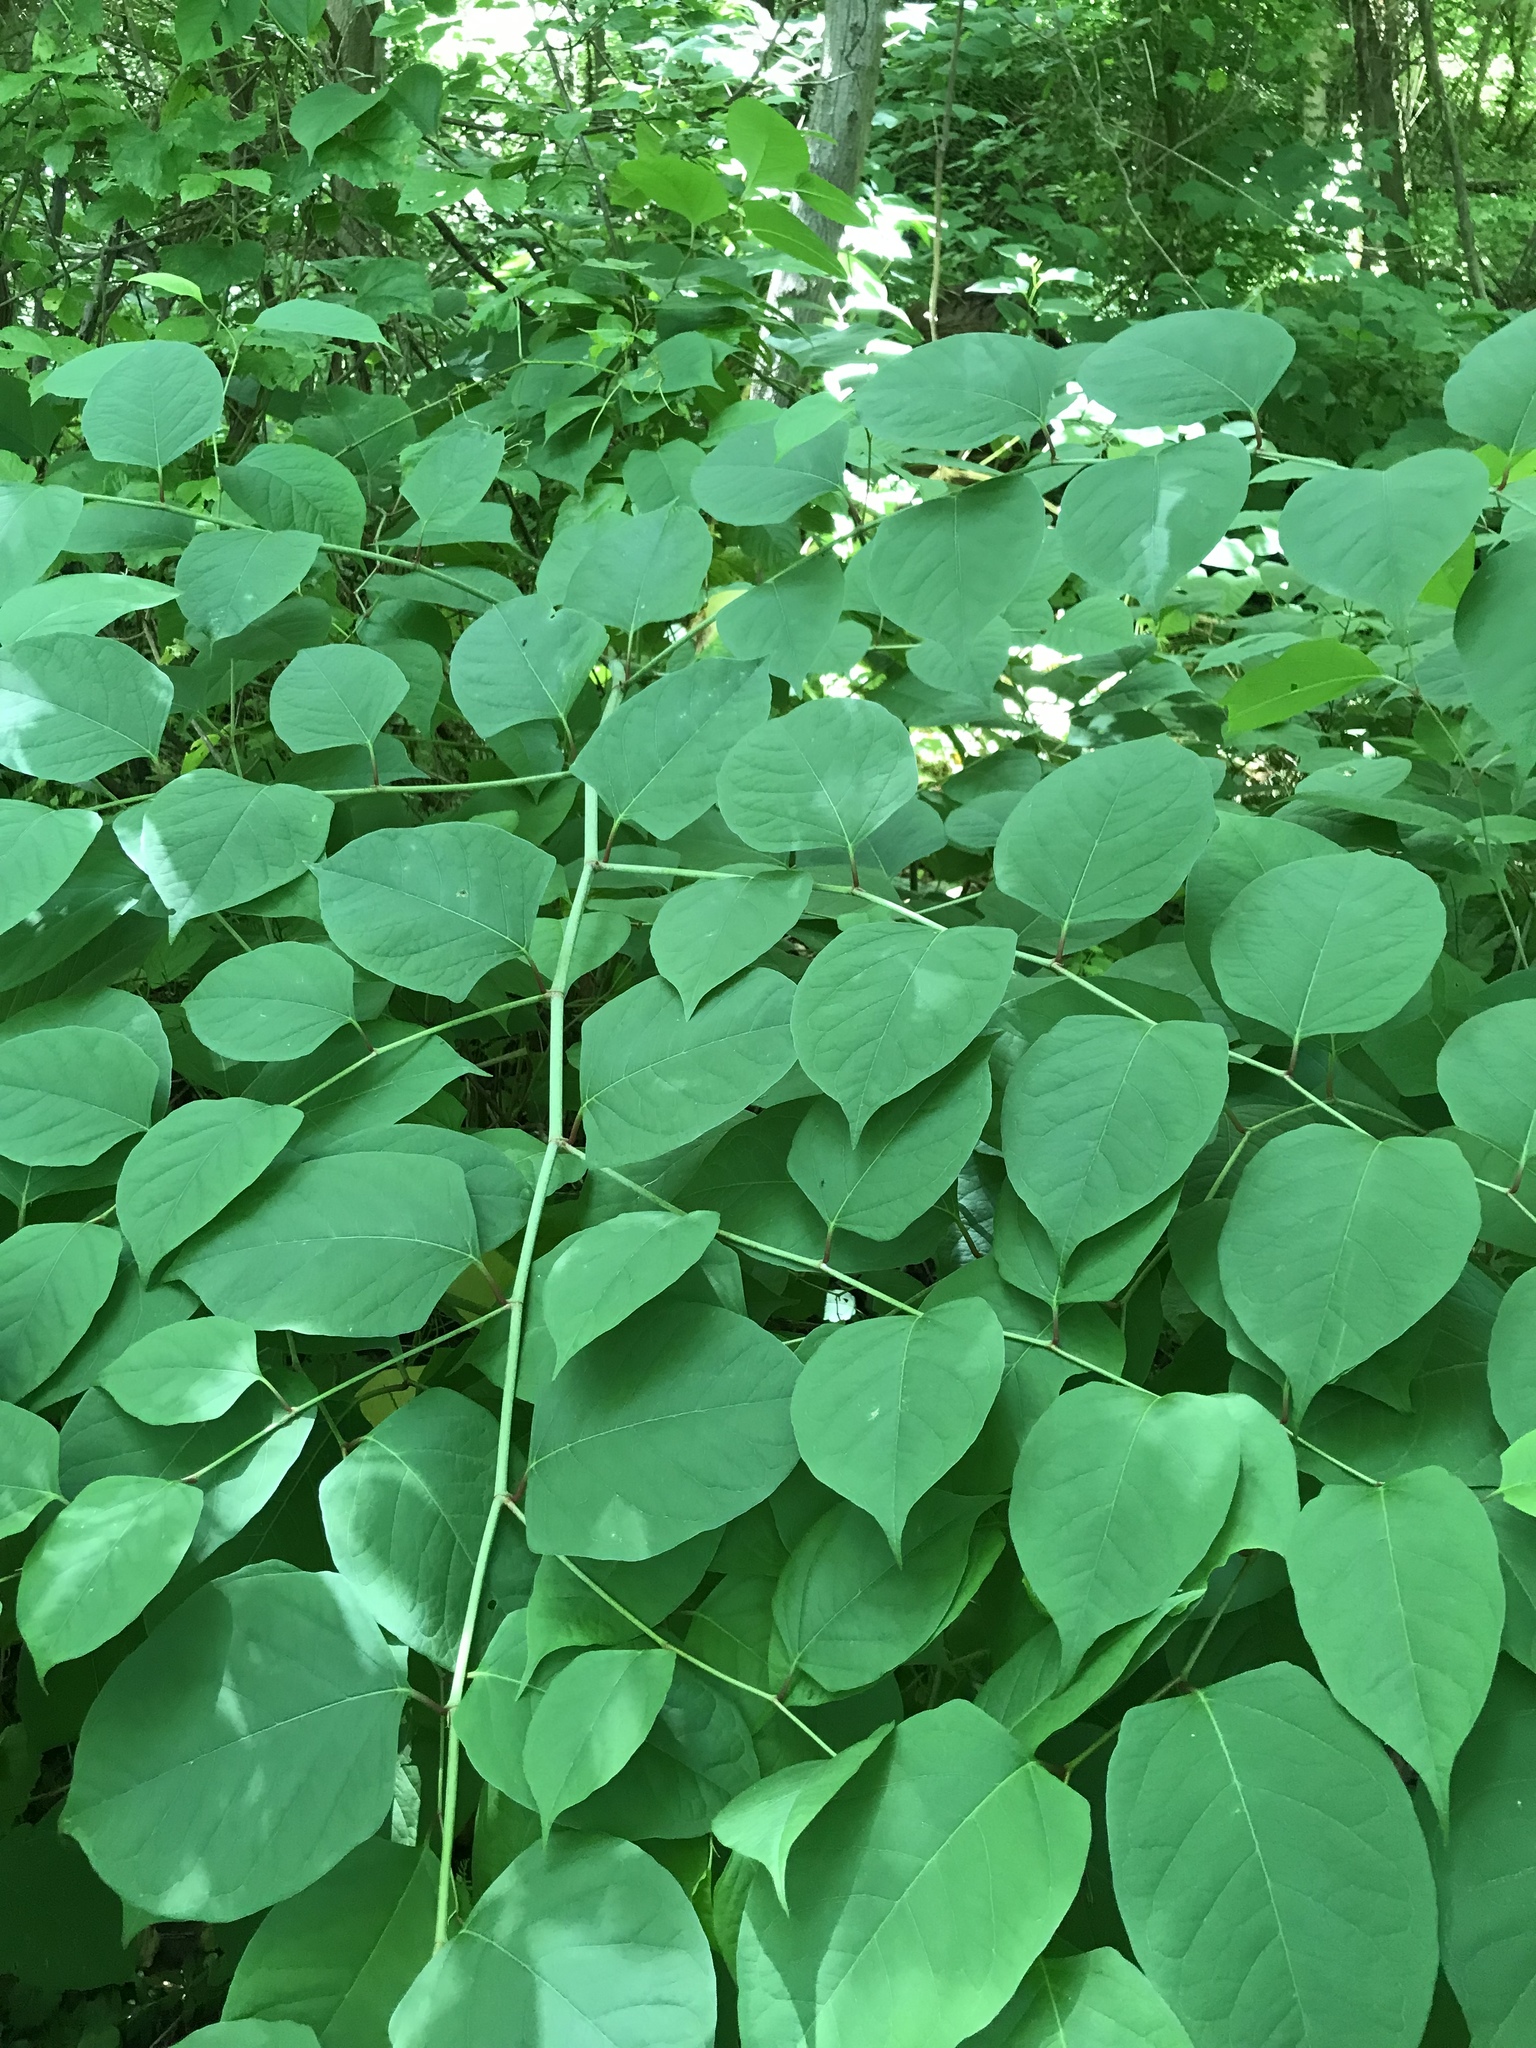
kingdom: Plantae
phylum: Tracheophyta
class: Magnoliopsida
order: Caryophyllales
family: Polygonaceae
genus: Reynoutria
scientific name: Reynoutria japonica
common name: Japanese knotweed
